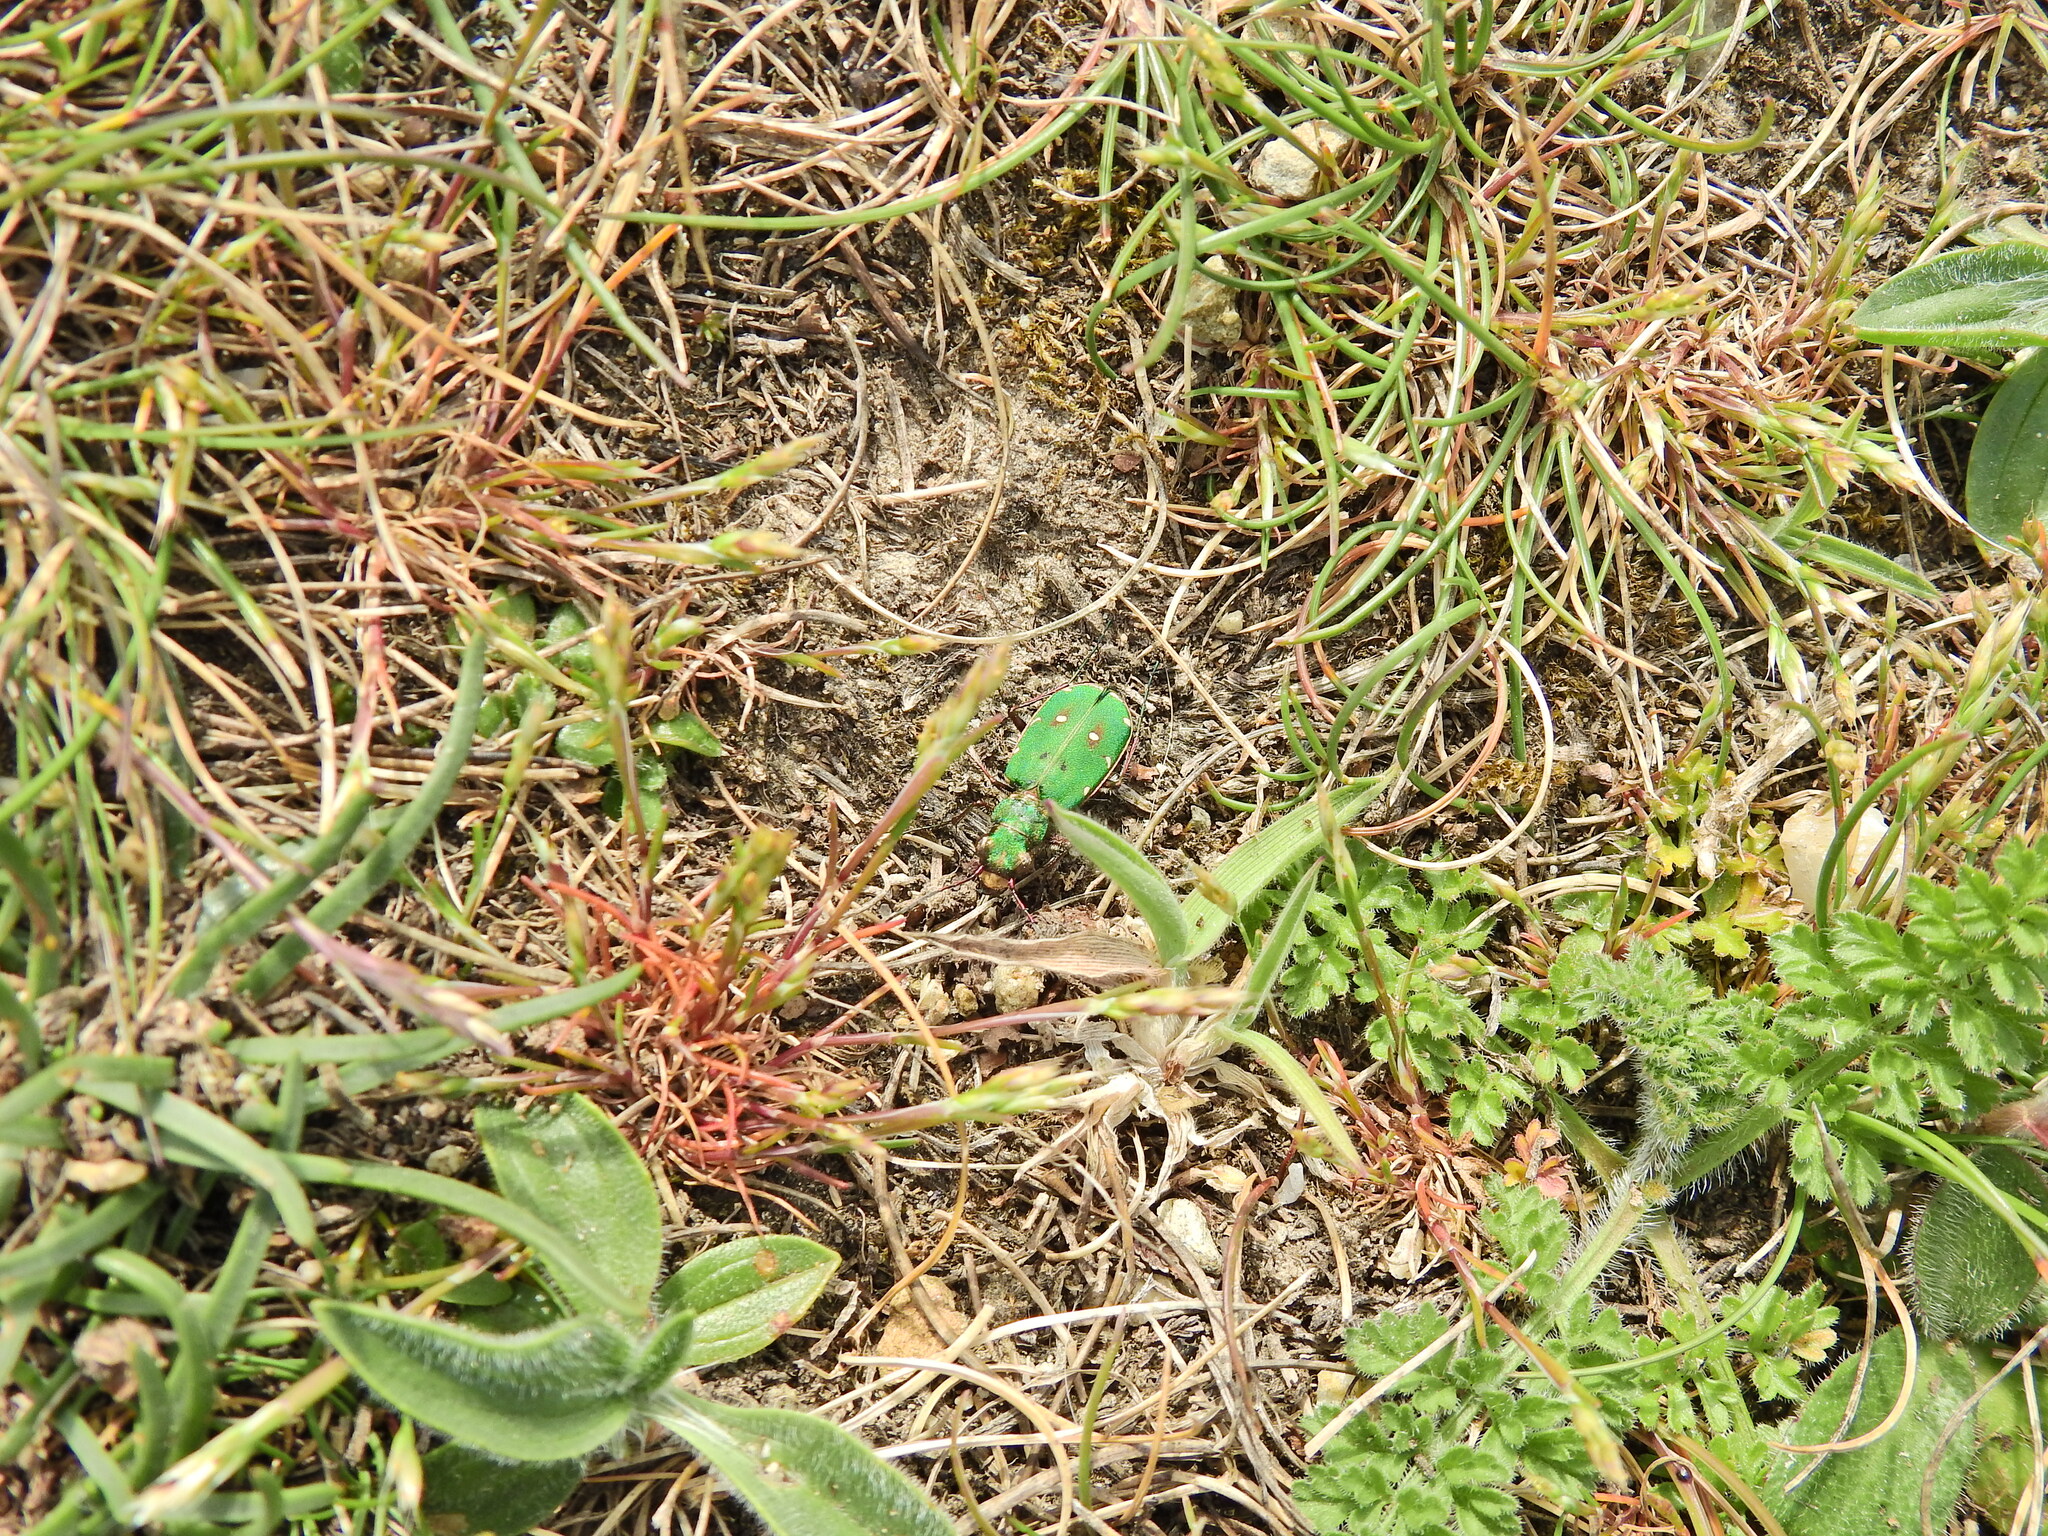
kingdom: Animalia
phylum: Arthropoda
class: Insecta
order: Coleoptera
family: Carabidae
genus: Cicindela
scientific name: Cicindela campestris
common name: Common tiger beetle
